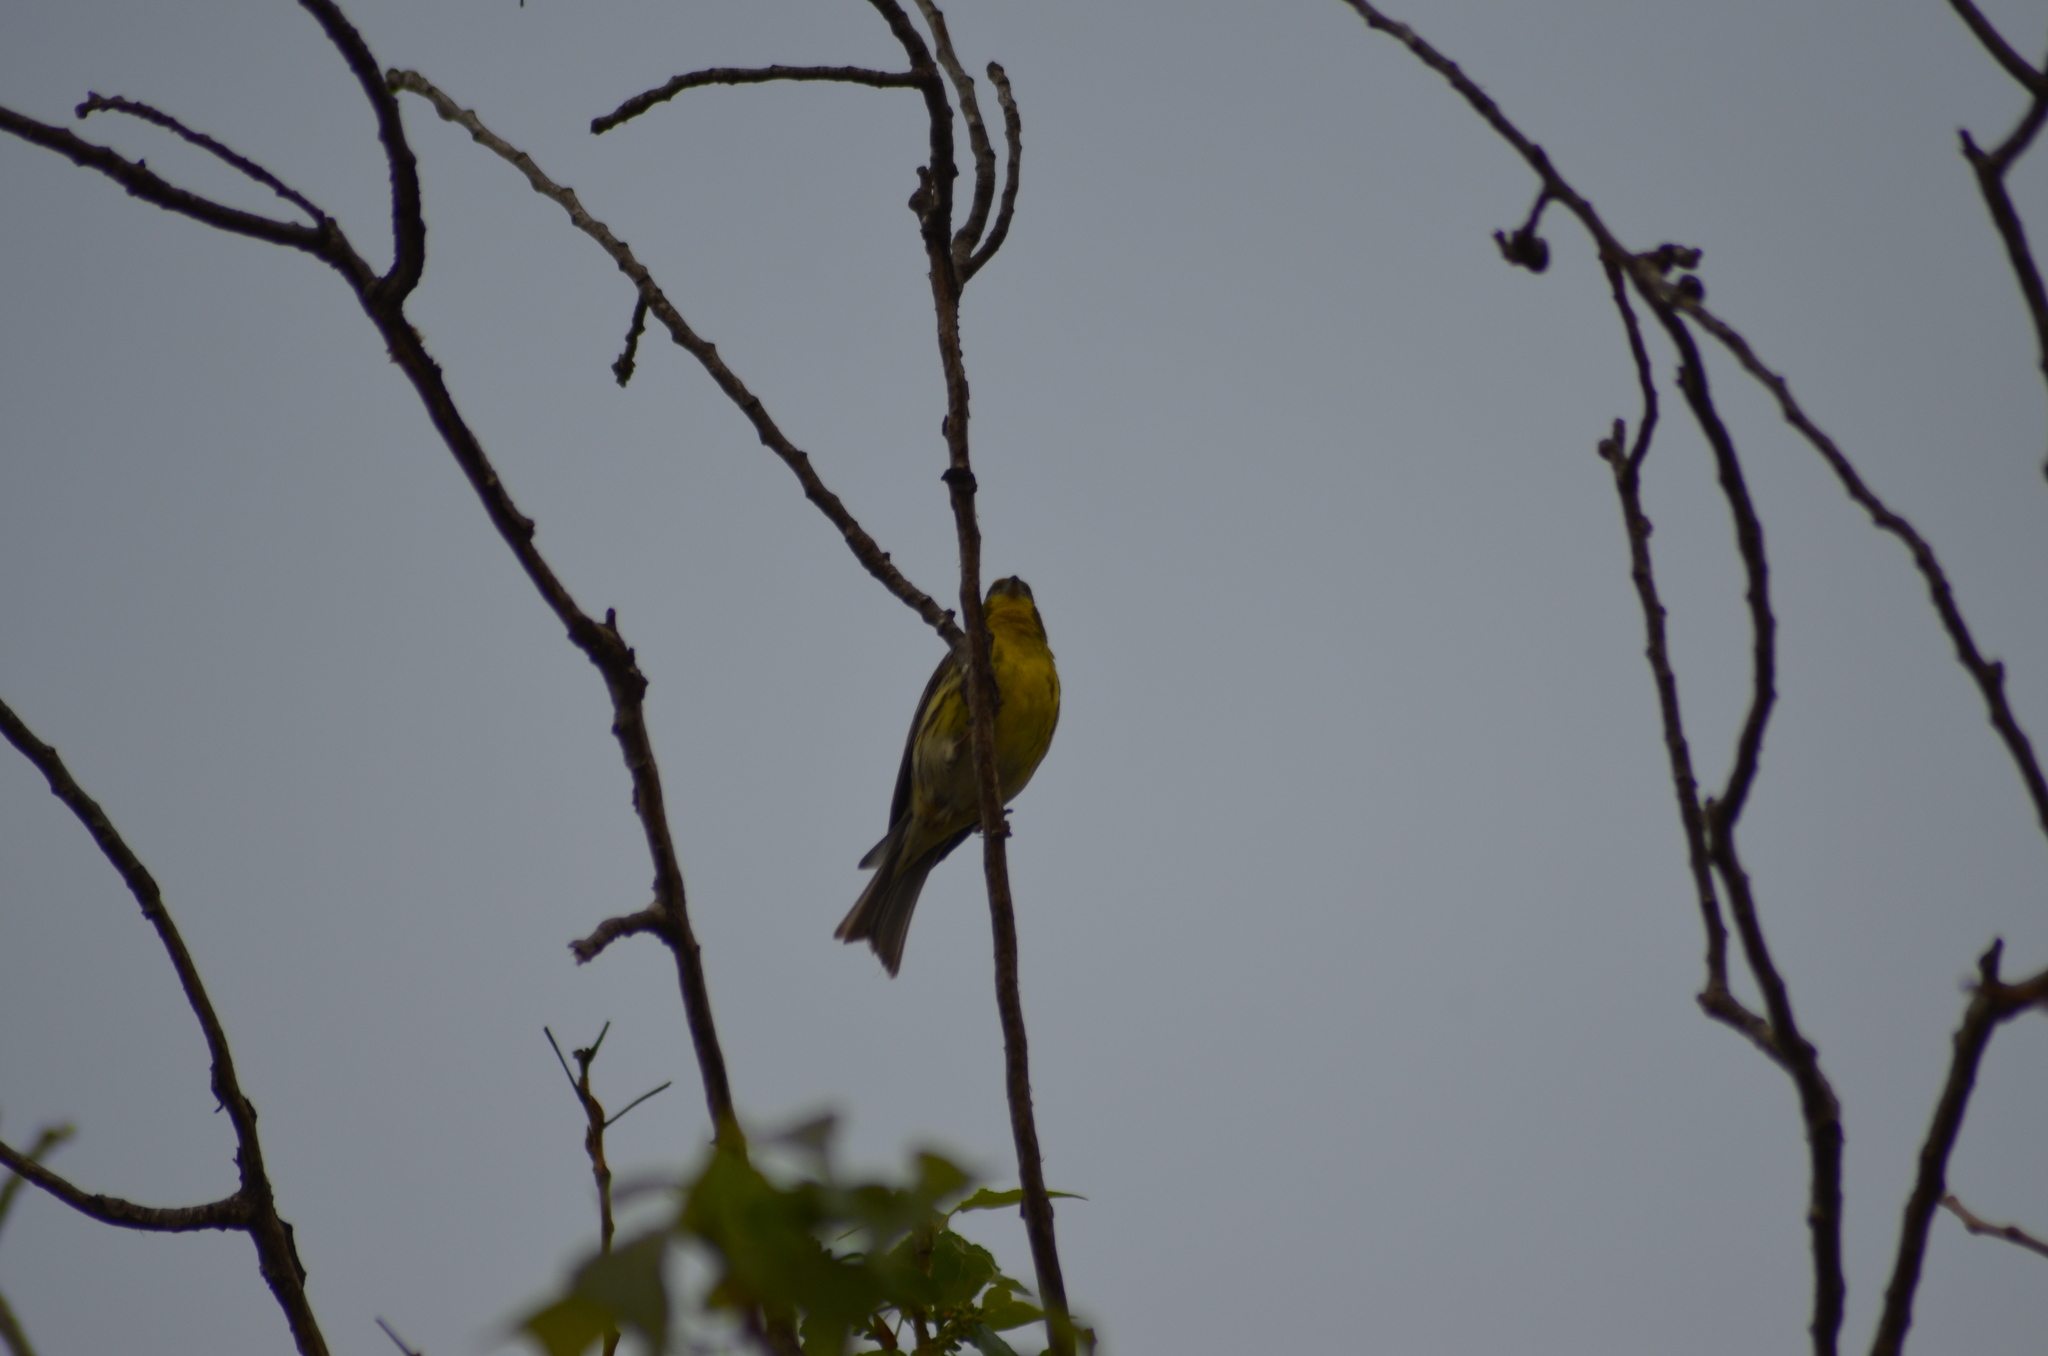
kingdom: Animalia
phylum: Chordata
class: Aves
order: Passeriformes
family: Fringillidae
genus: Serinus
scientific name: Serinus serinus
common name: European serin
